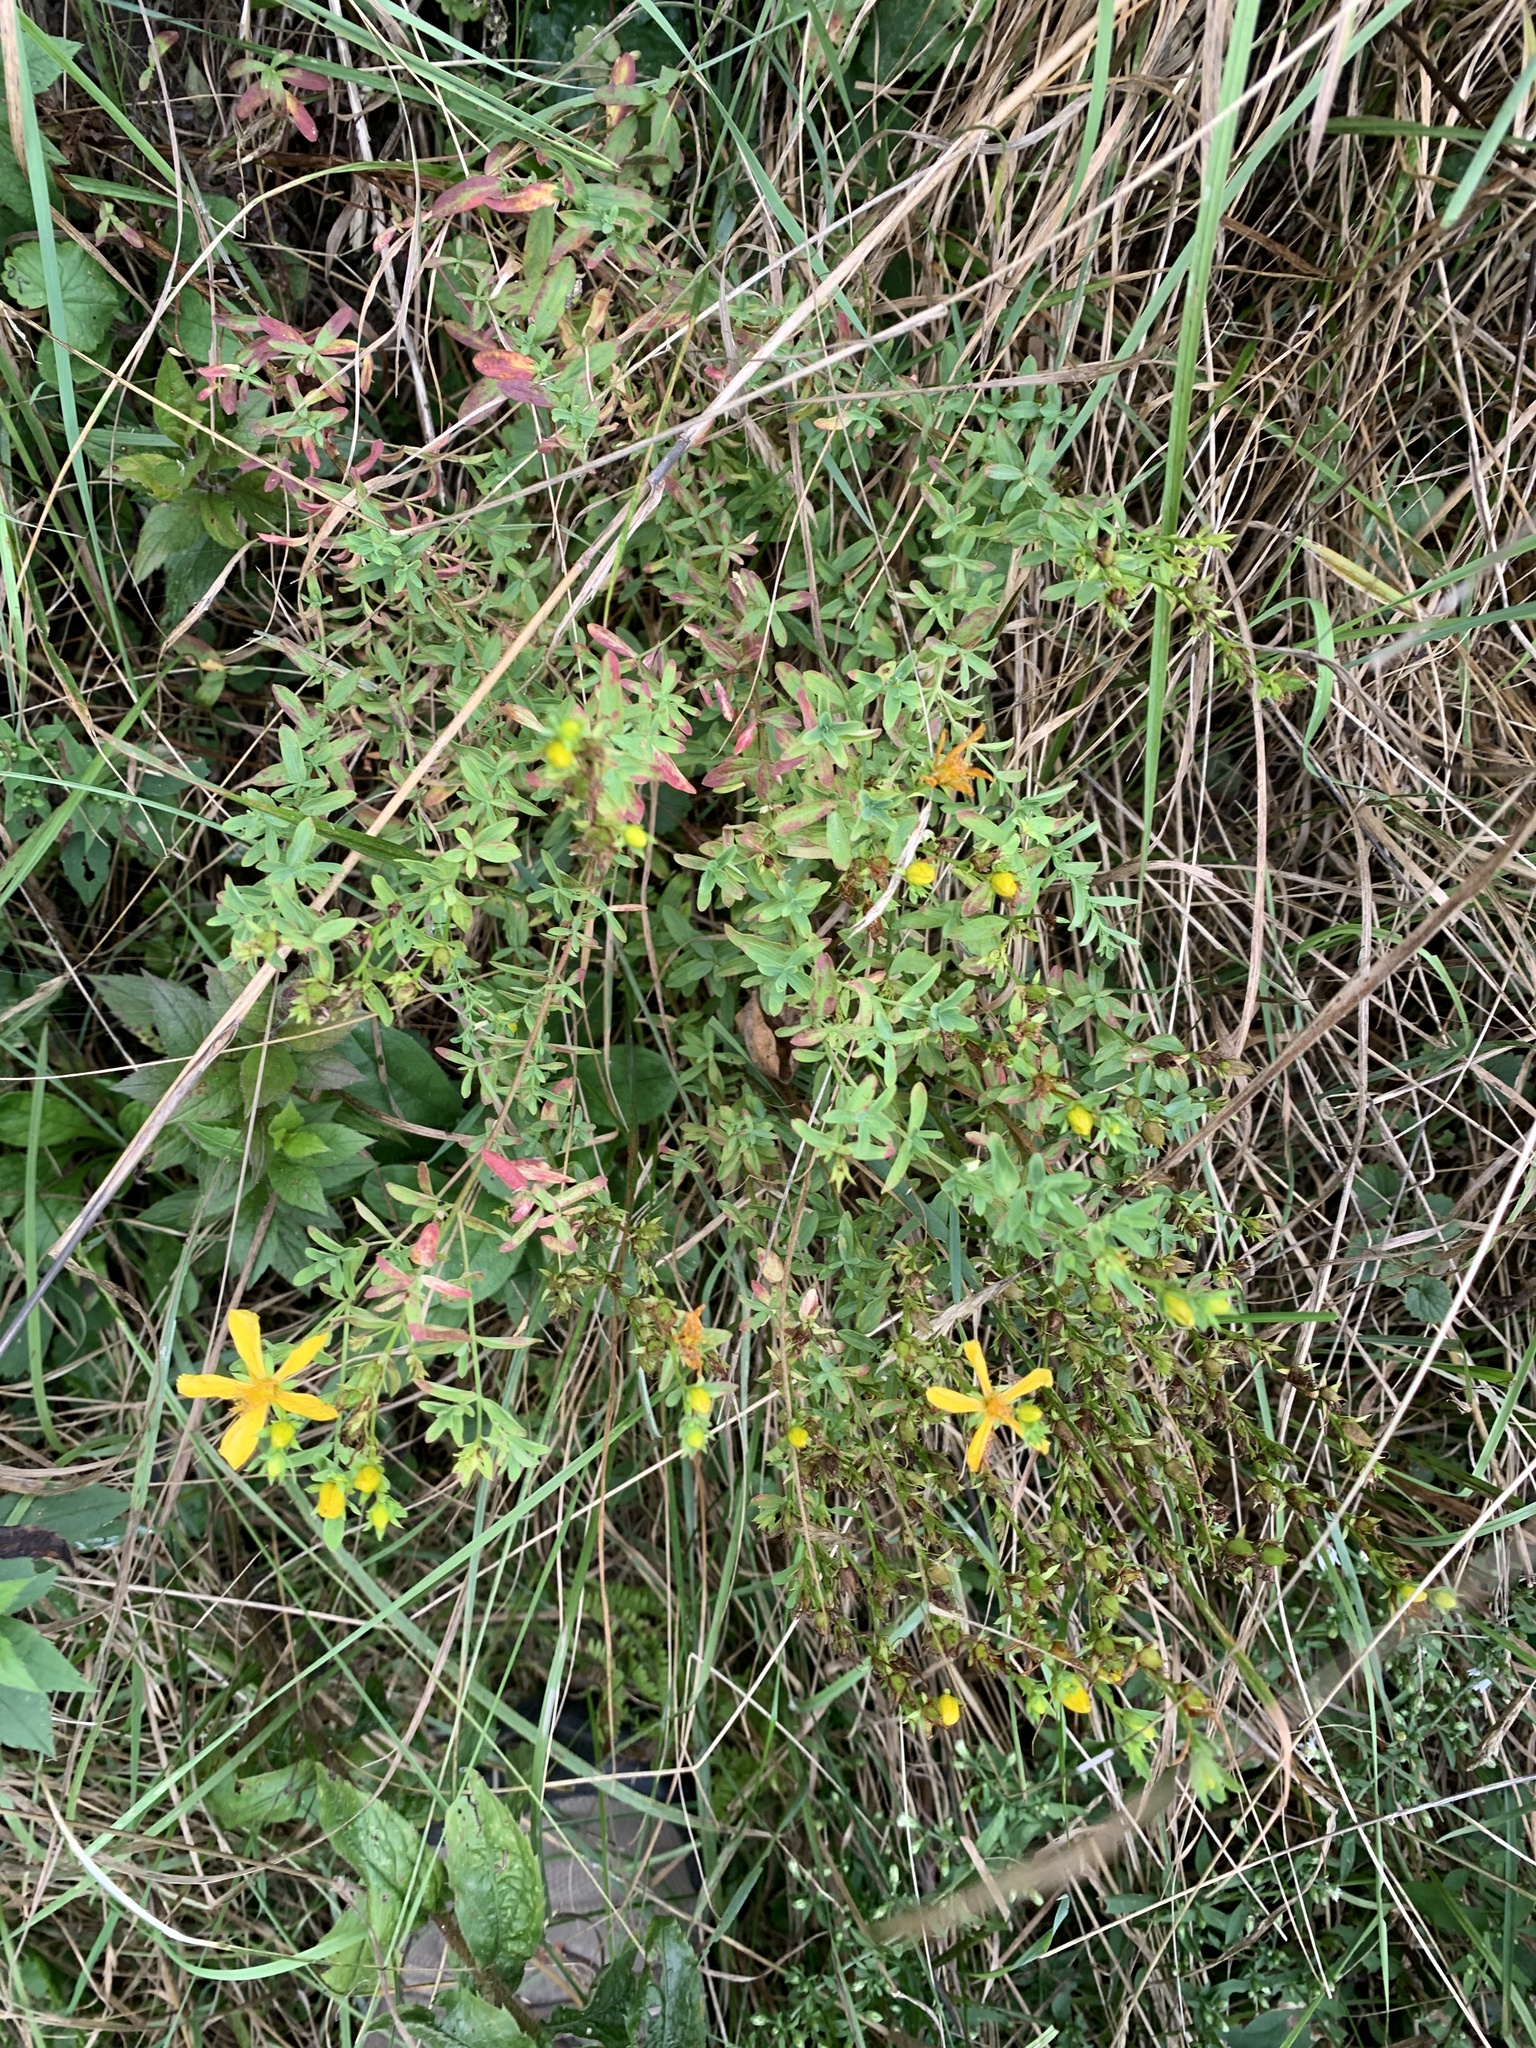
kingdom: Plantae
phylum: Tracheophyta
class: Magnoliopsida
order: Malpighiales
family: Hypericaceae
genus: Hypericum
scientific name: Hypericum perforatum
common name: Common st. johnswort
